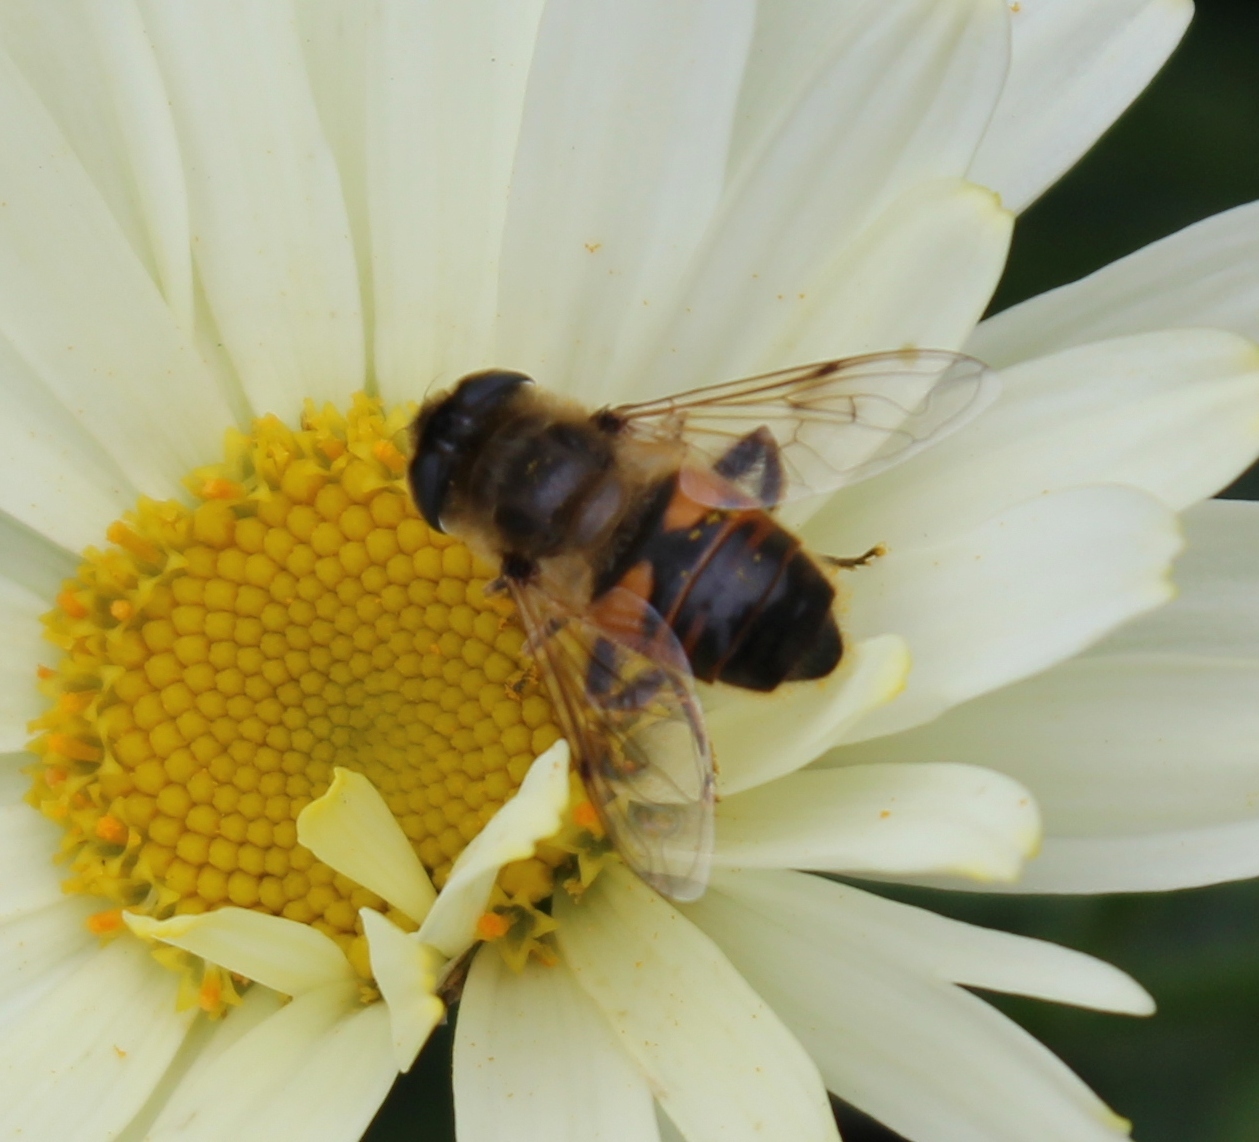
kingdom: Animalia
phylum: Arthropoda
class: Insecta
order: Diptera
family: Syrphidae
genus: Eristalis
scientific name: Eristalis tenax
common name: Drone fly
